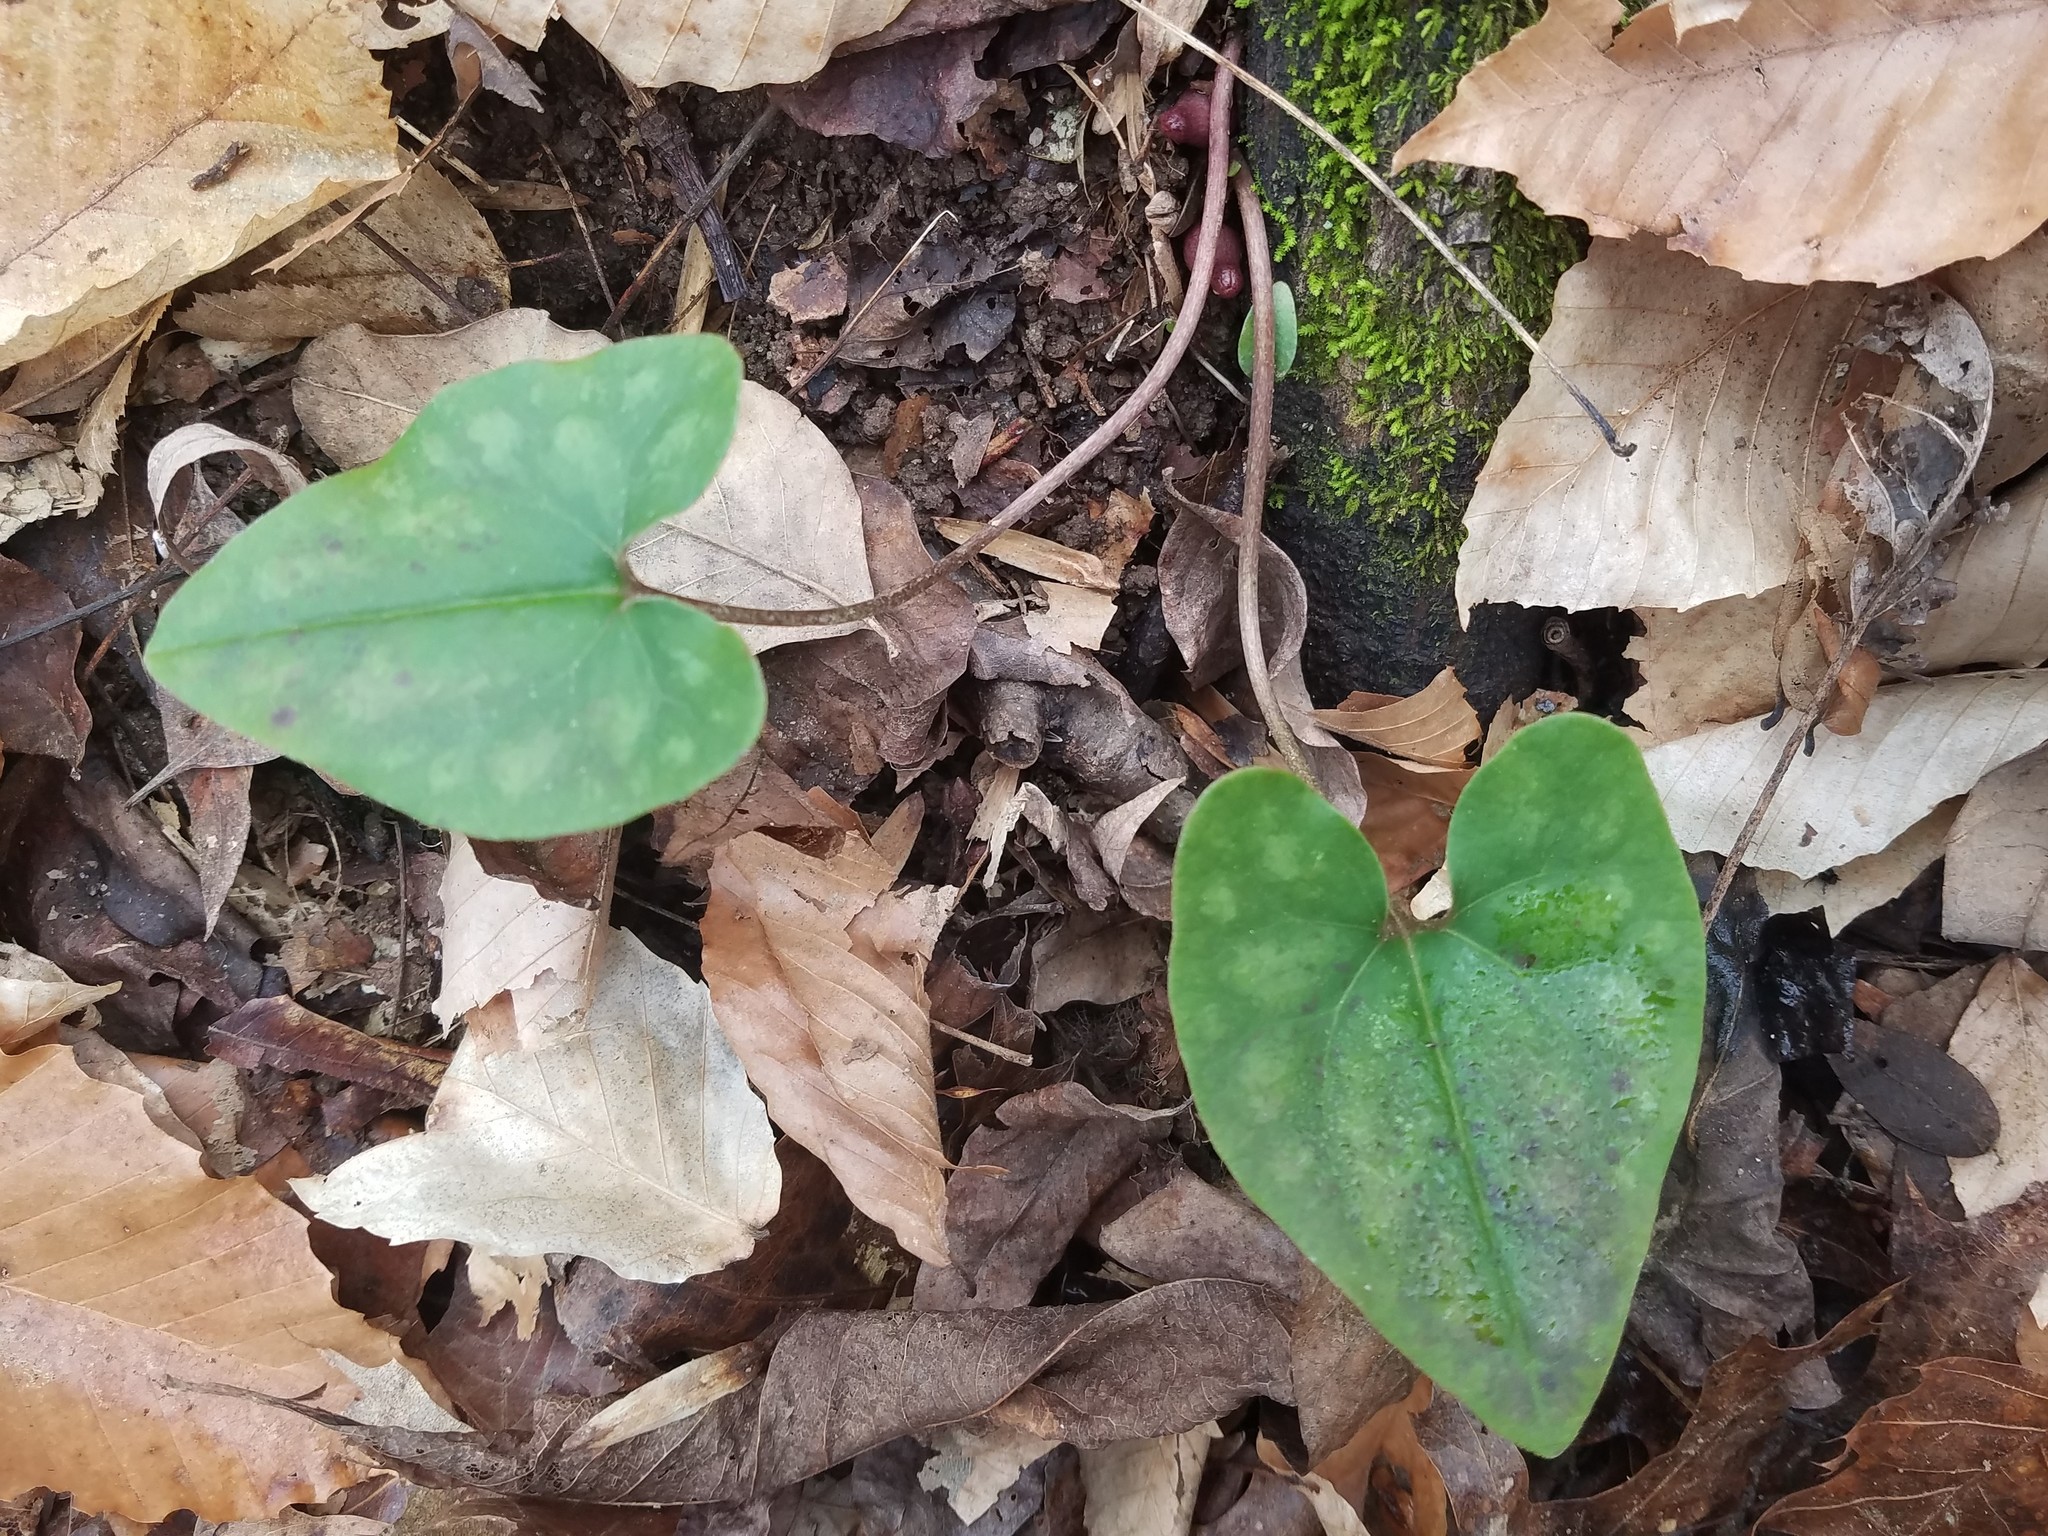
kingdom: Plantae
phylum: Tracheophyta
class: Magnoliopsida
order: Piperales
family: Aristolochiaceae
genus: Hexastylis
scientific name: Hexastylis arifolia
